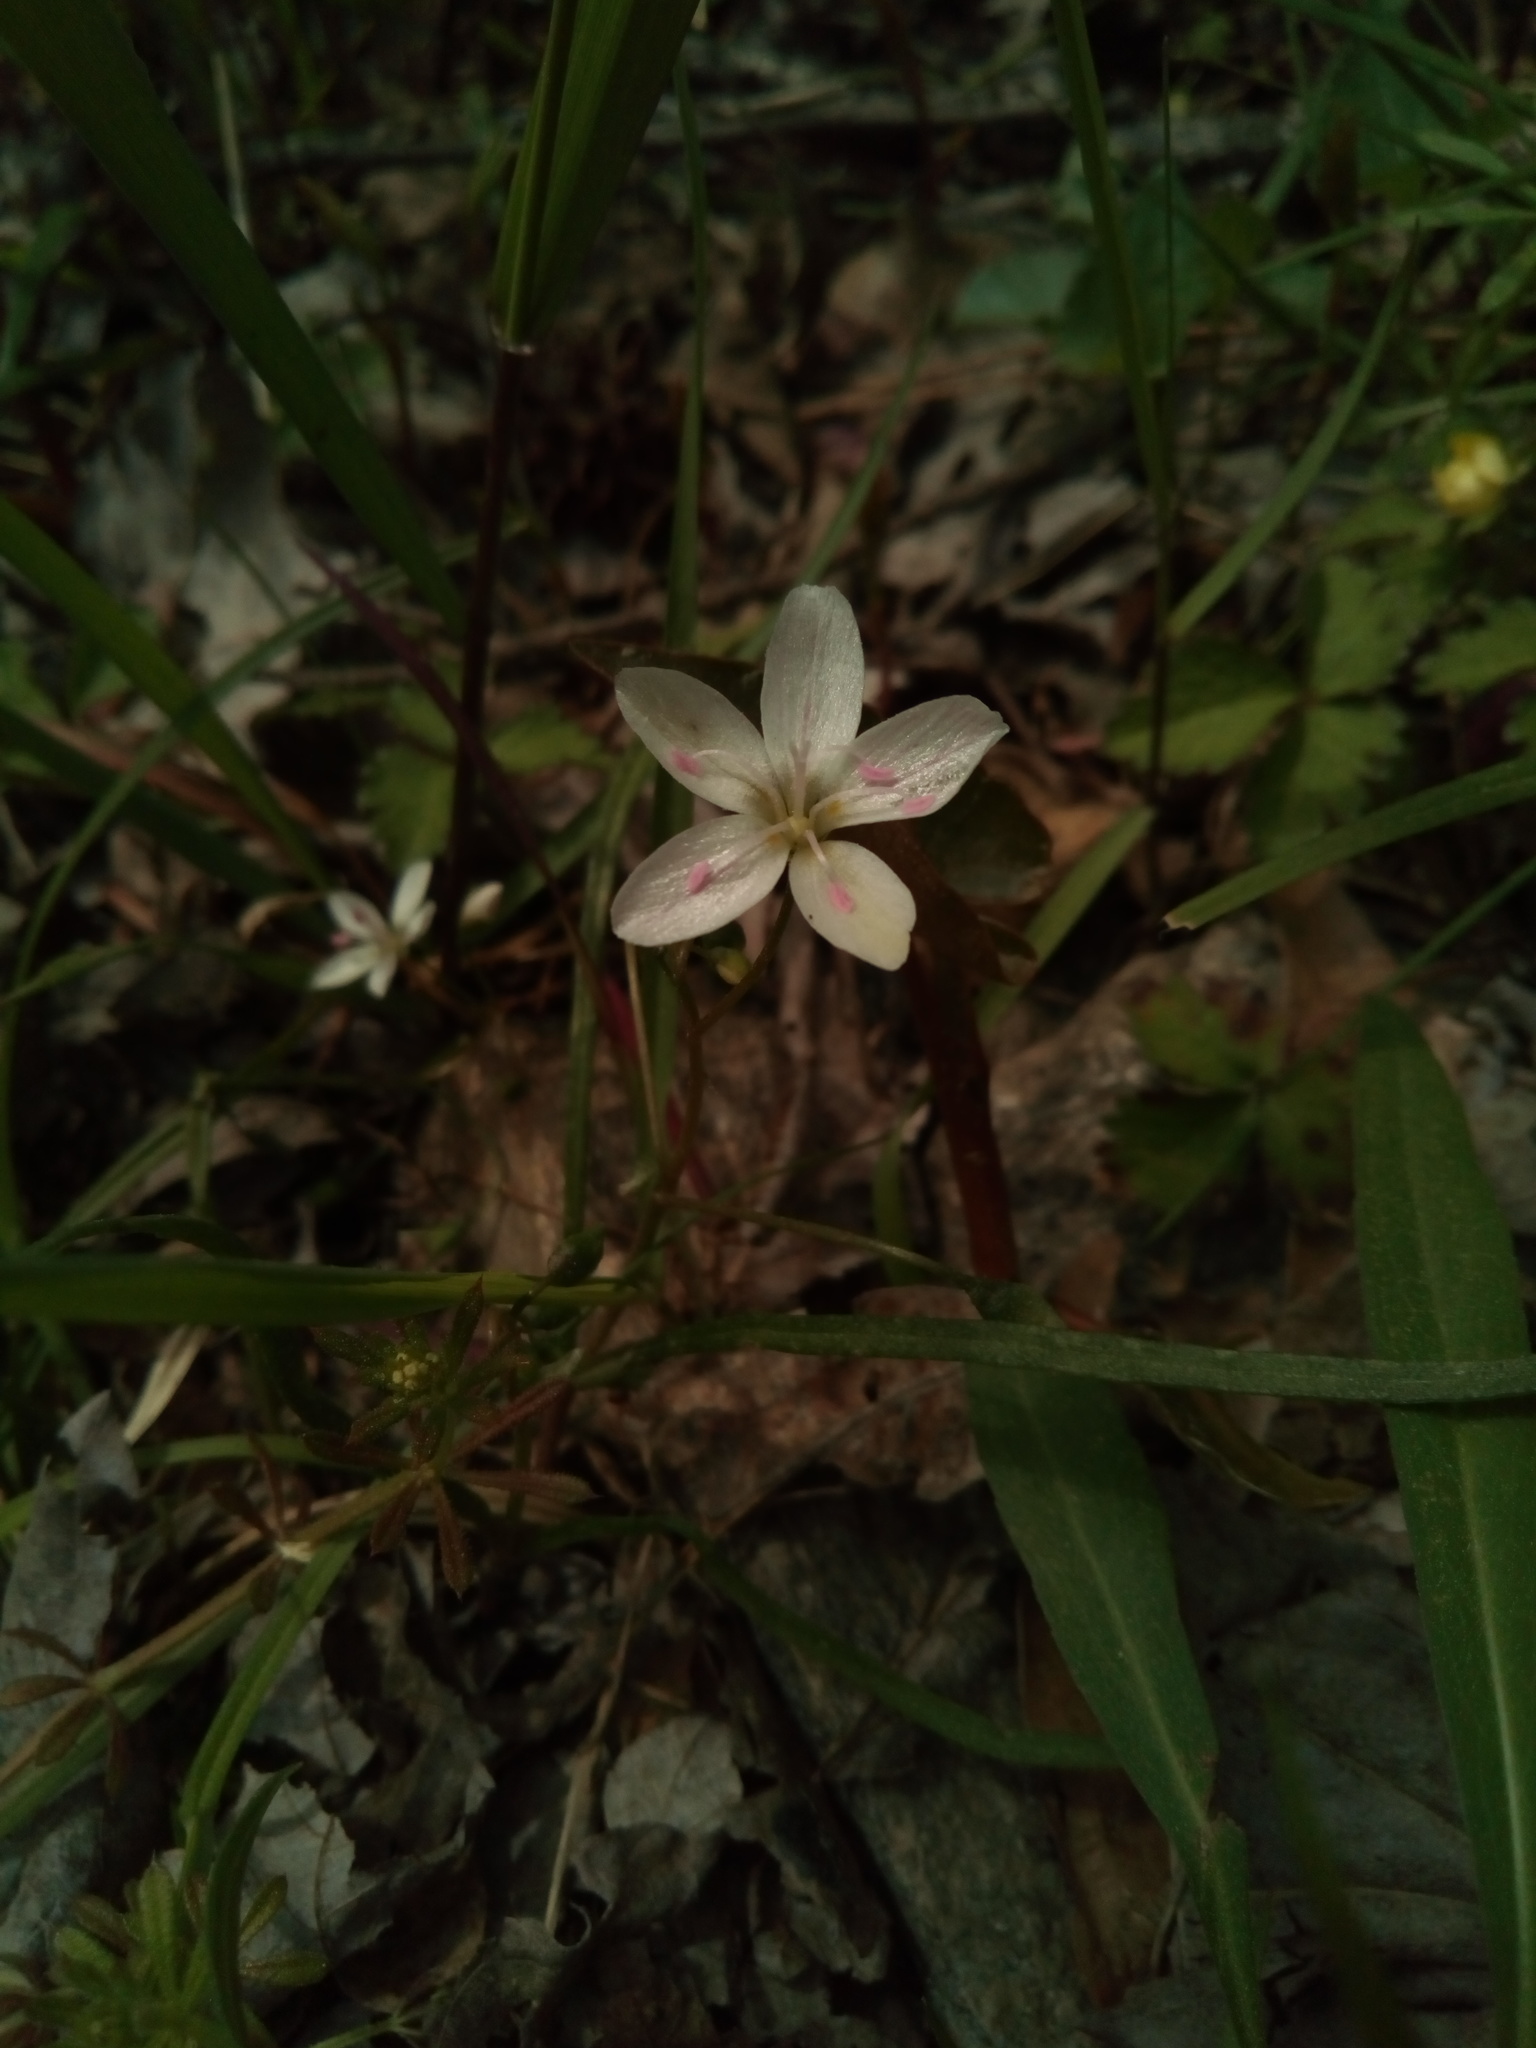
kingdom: Plantae
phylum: Tracheophyta
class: Magnoliopsida
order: Caryophyllales
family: Montiaceae
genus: Claytonia
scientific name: Claytonia virginica
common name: Virginia springbeauty
